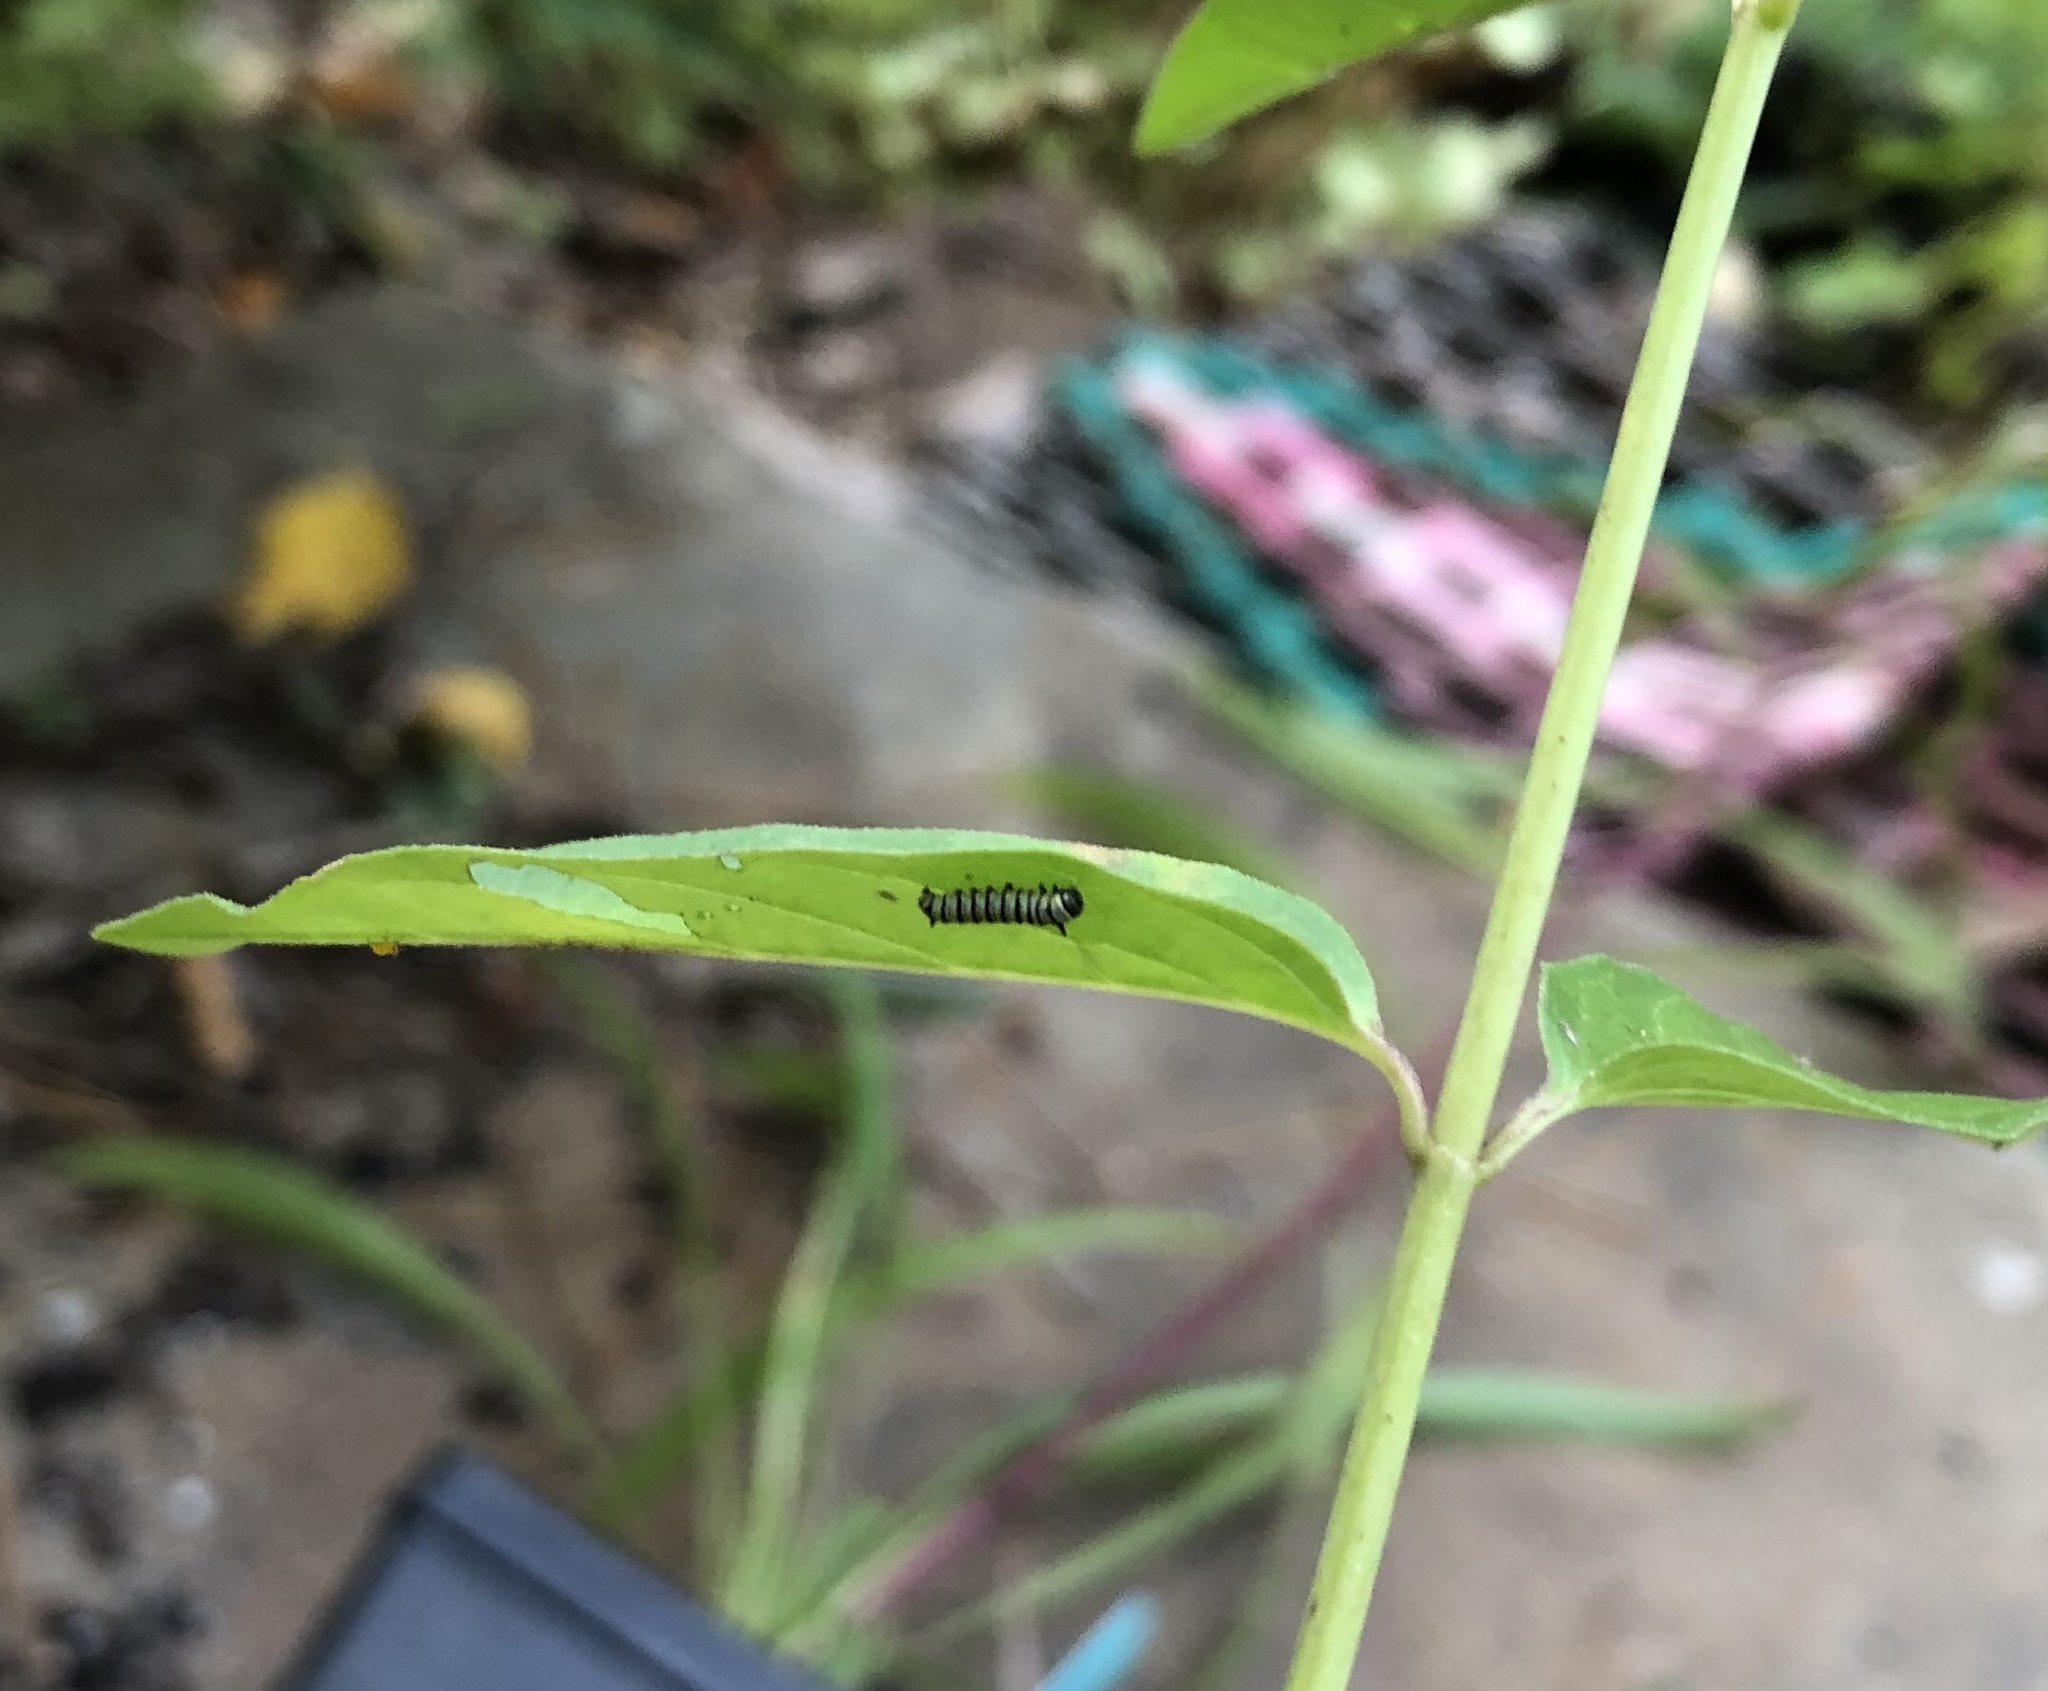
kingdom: Animalia
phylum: Arthropoda
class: Insecta
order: Lepidoptera
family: Nymphalidae
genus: Danaus
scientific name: Danaus plexippus
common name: Monarch
